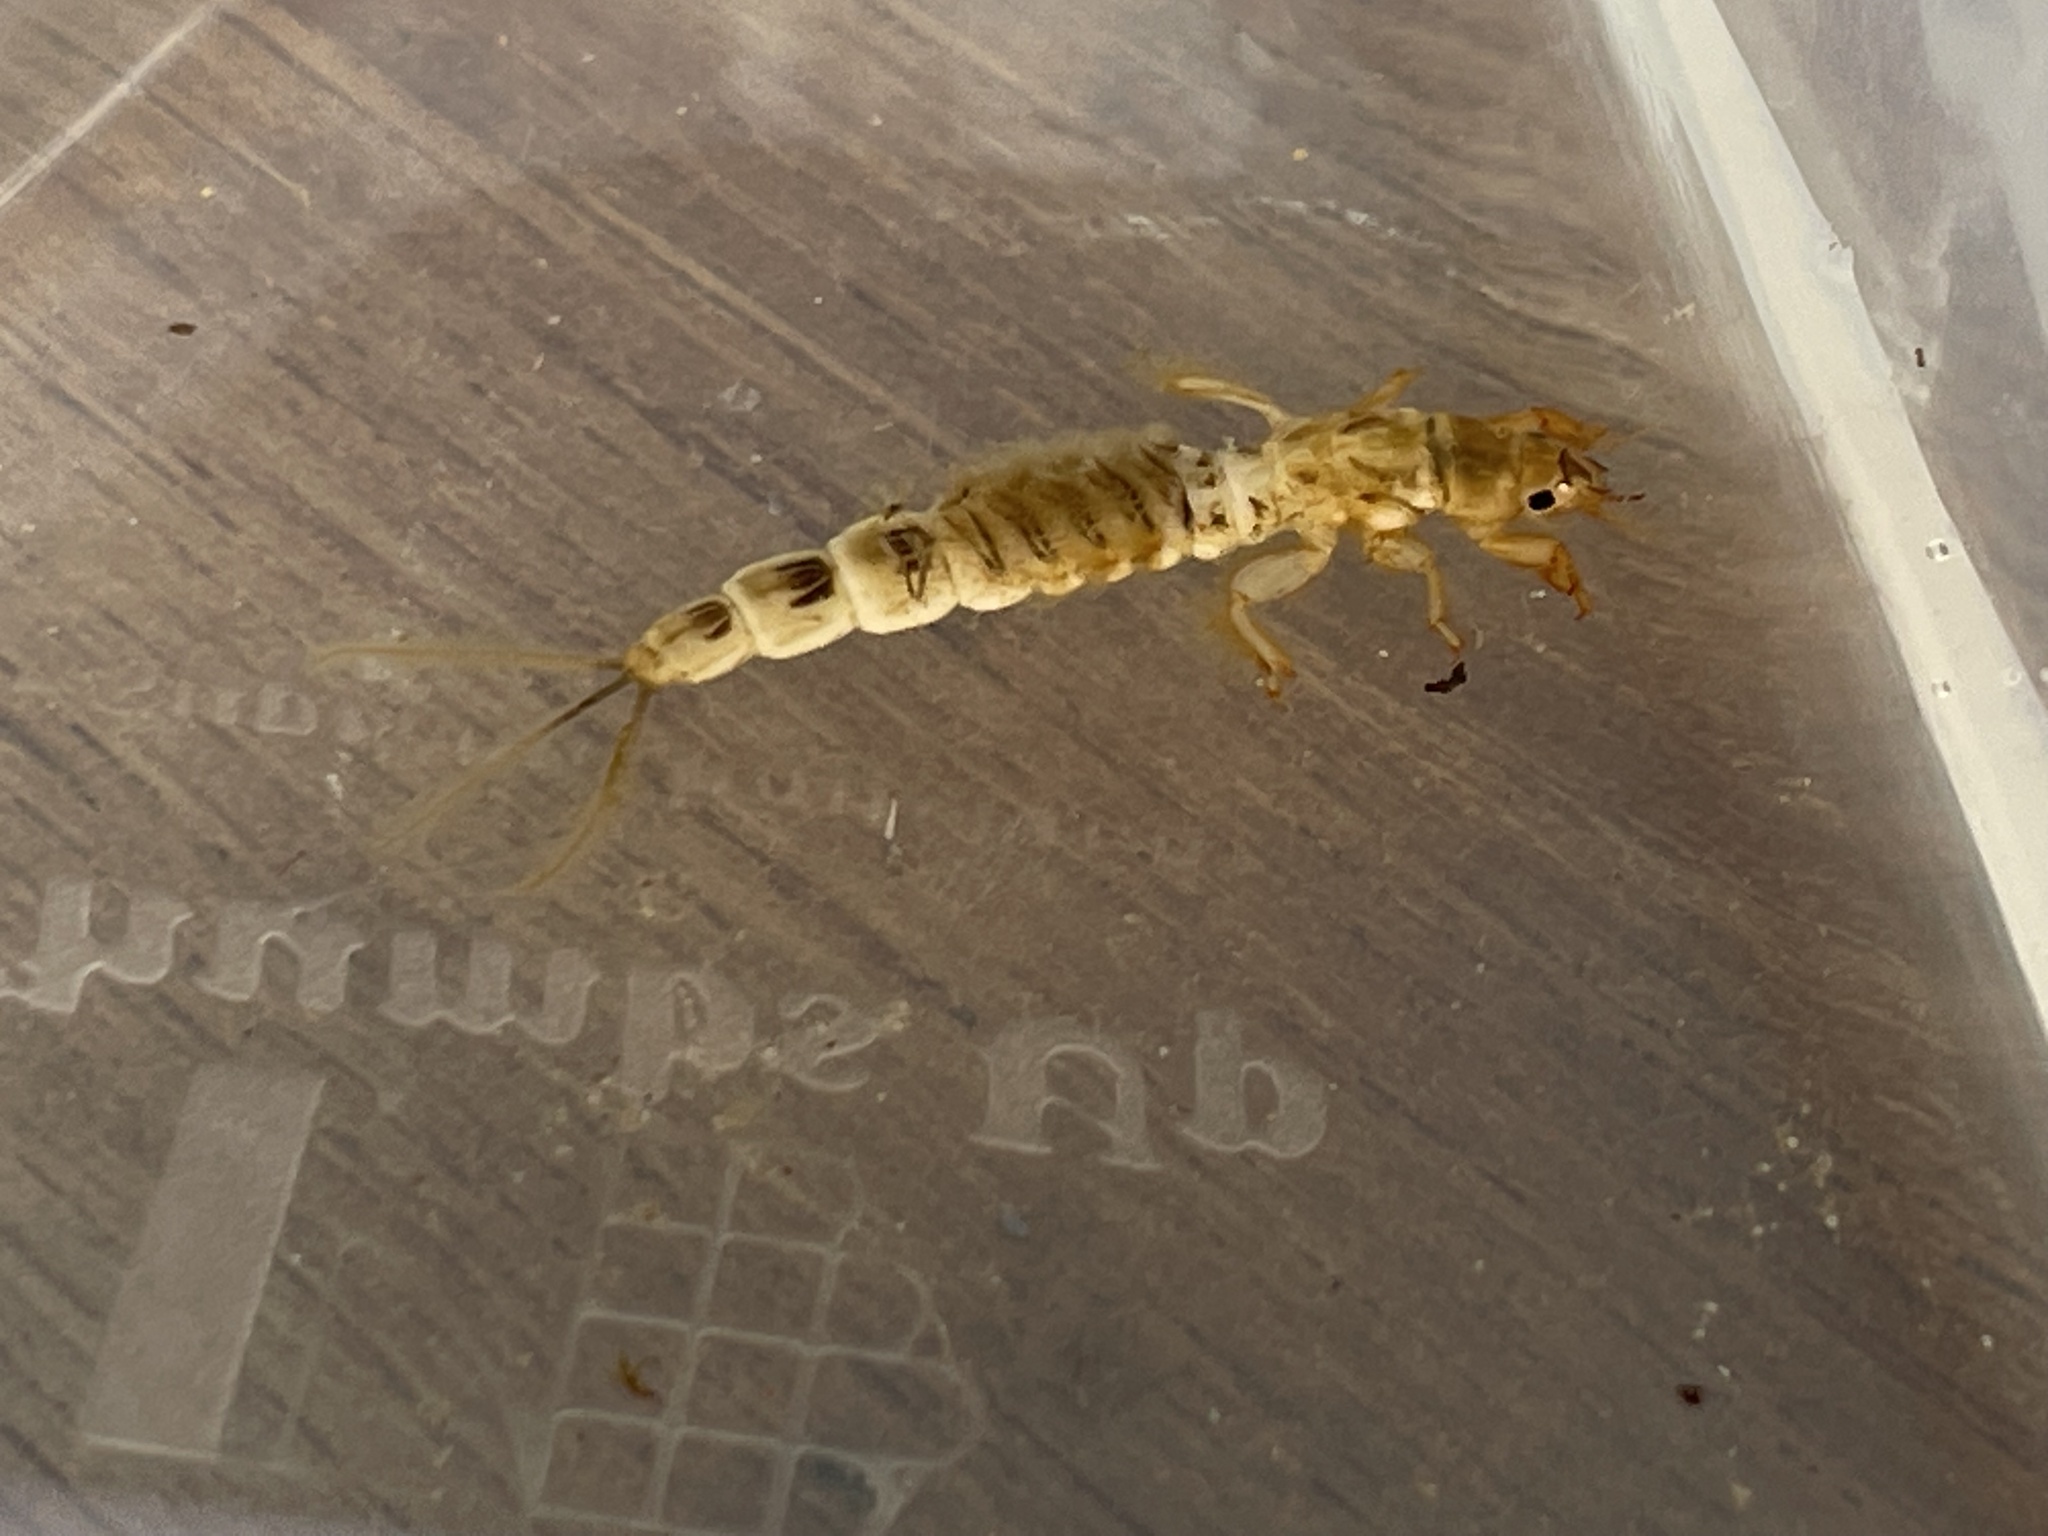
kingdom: Animalia
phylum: Arthropoda
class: Insecta
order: Ephemeroptera
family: Ephemeridae
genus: Ephemera
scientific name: Ephemera danica
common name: Green dun
